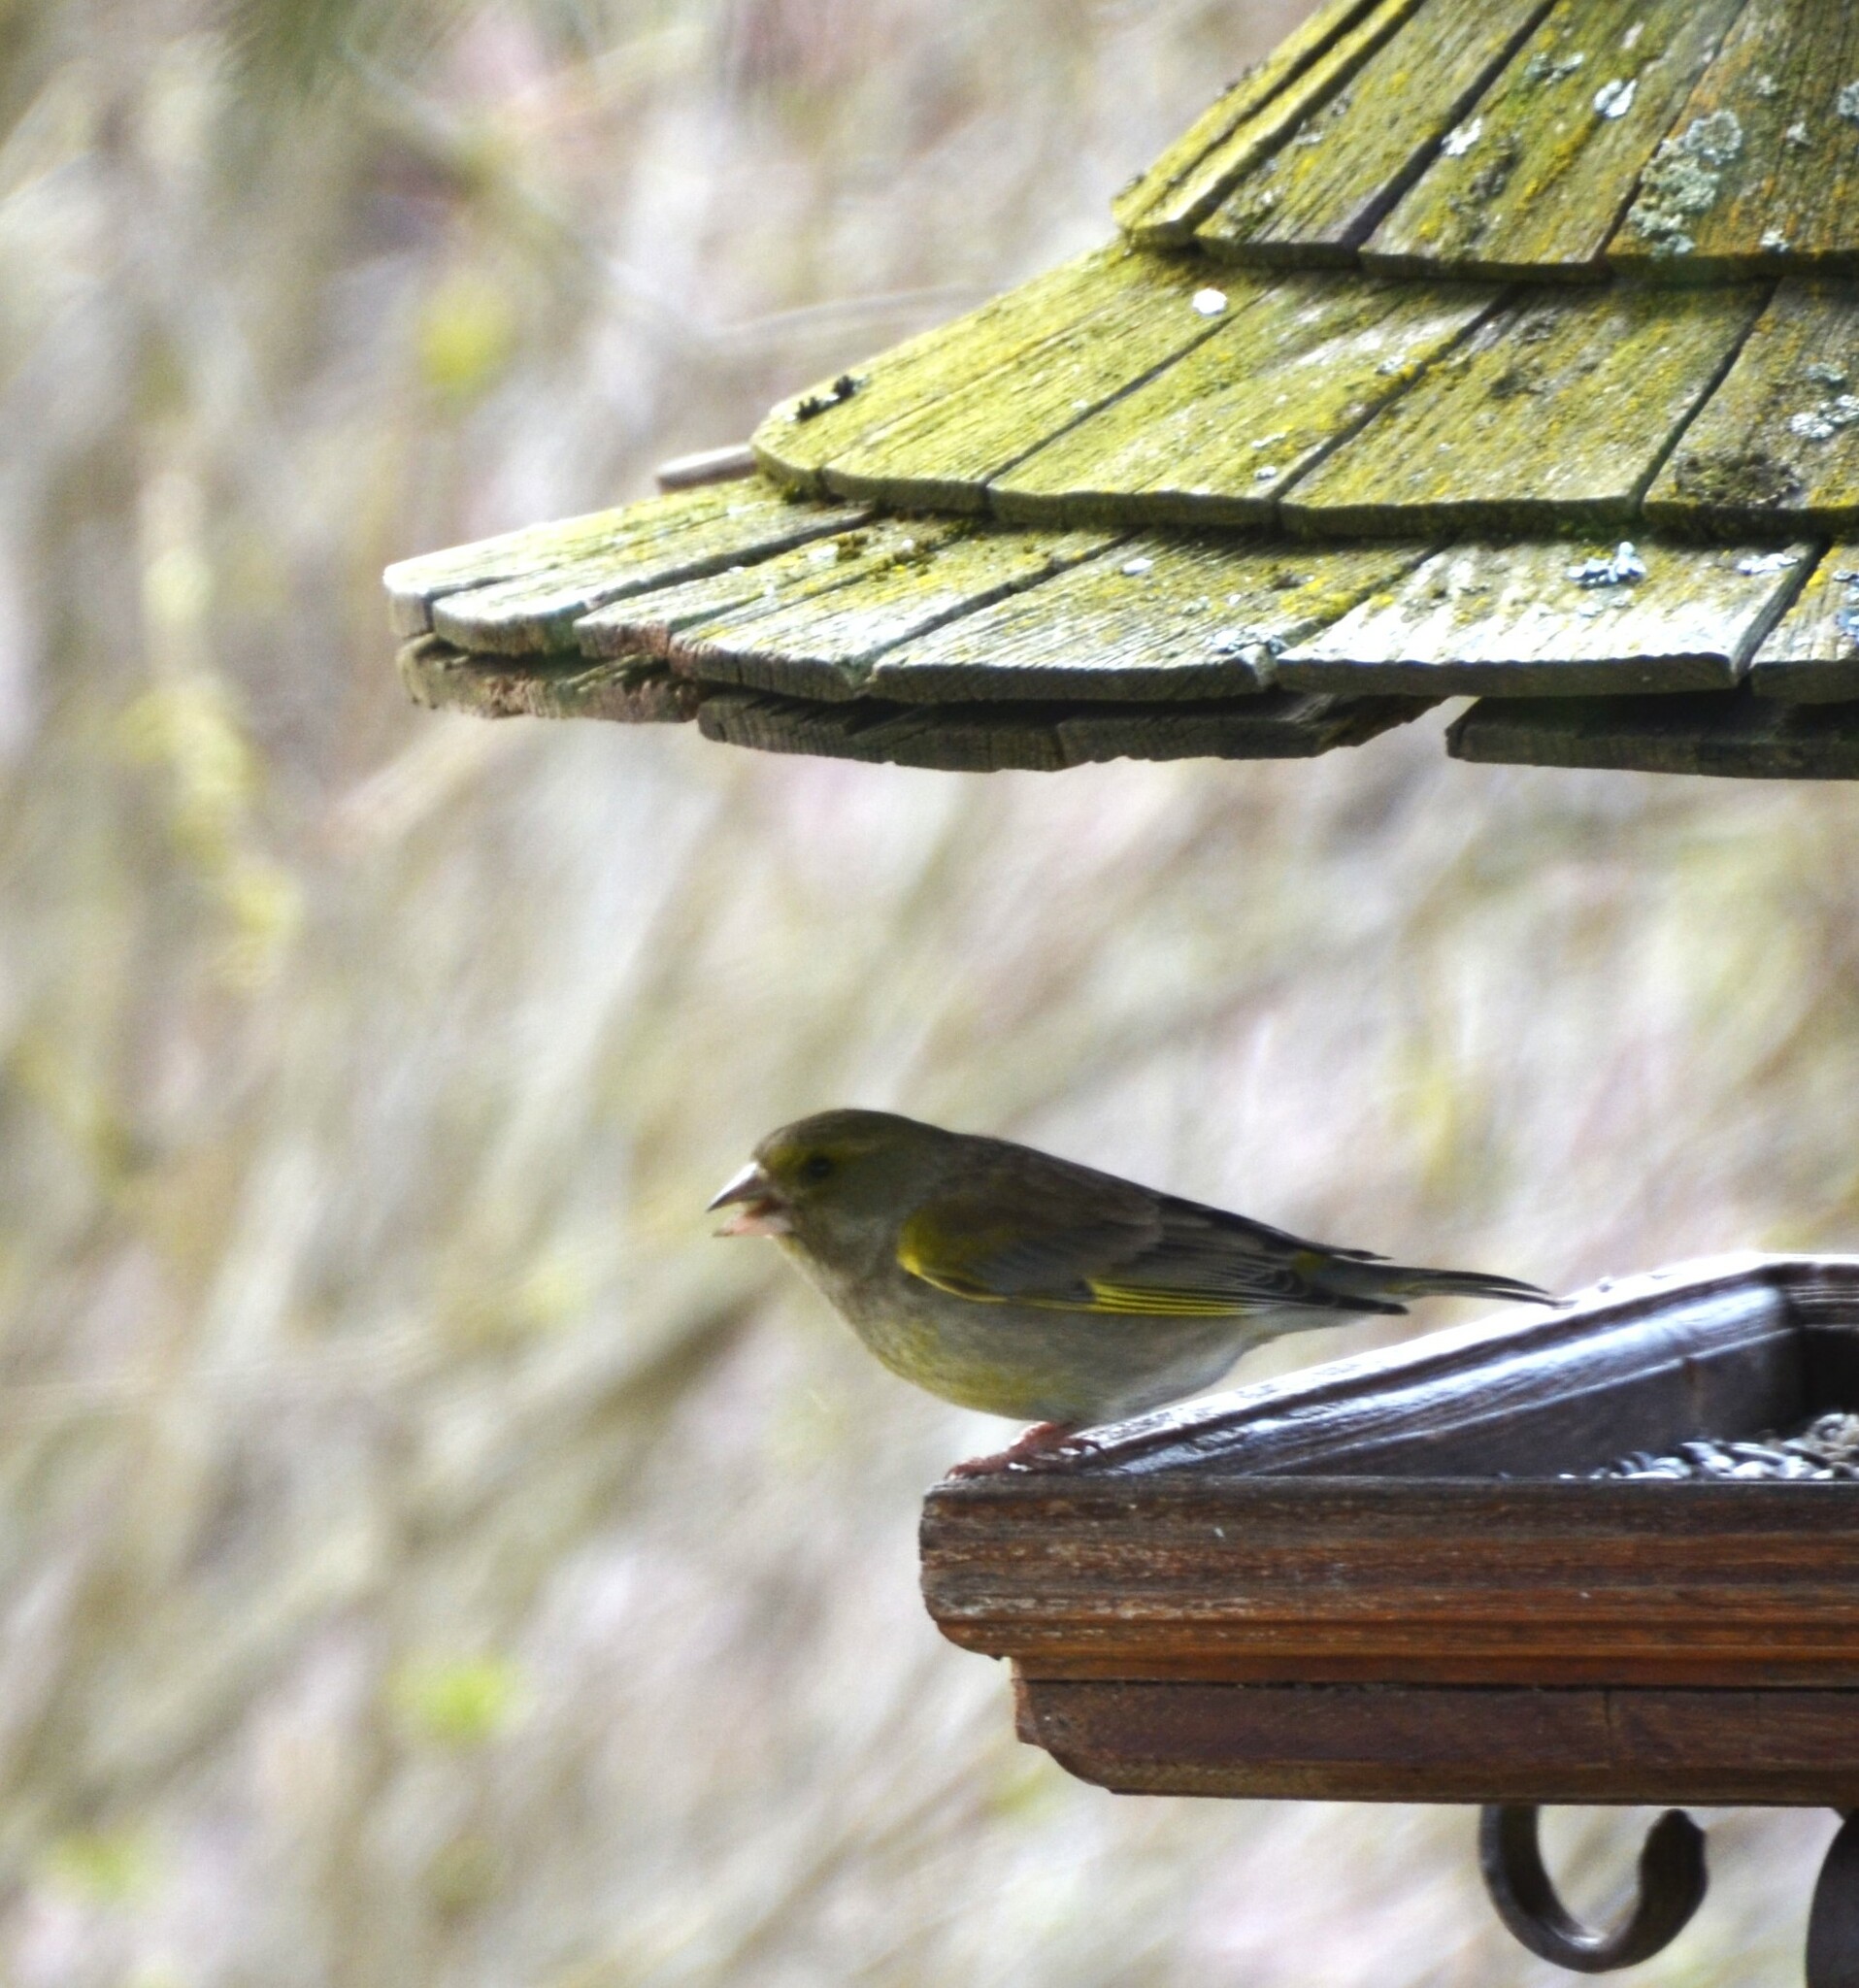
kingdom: Plantae
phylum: Tracheophyta
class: Liliopsida
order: Poales
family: Poaceae
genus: Chloris
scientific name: Chloris chloris
